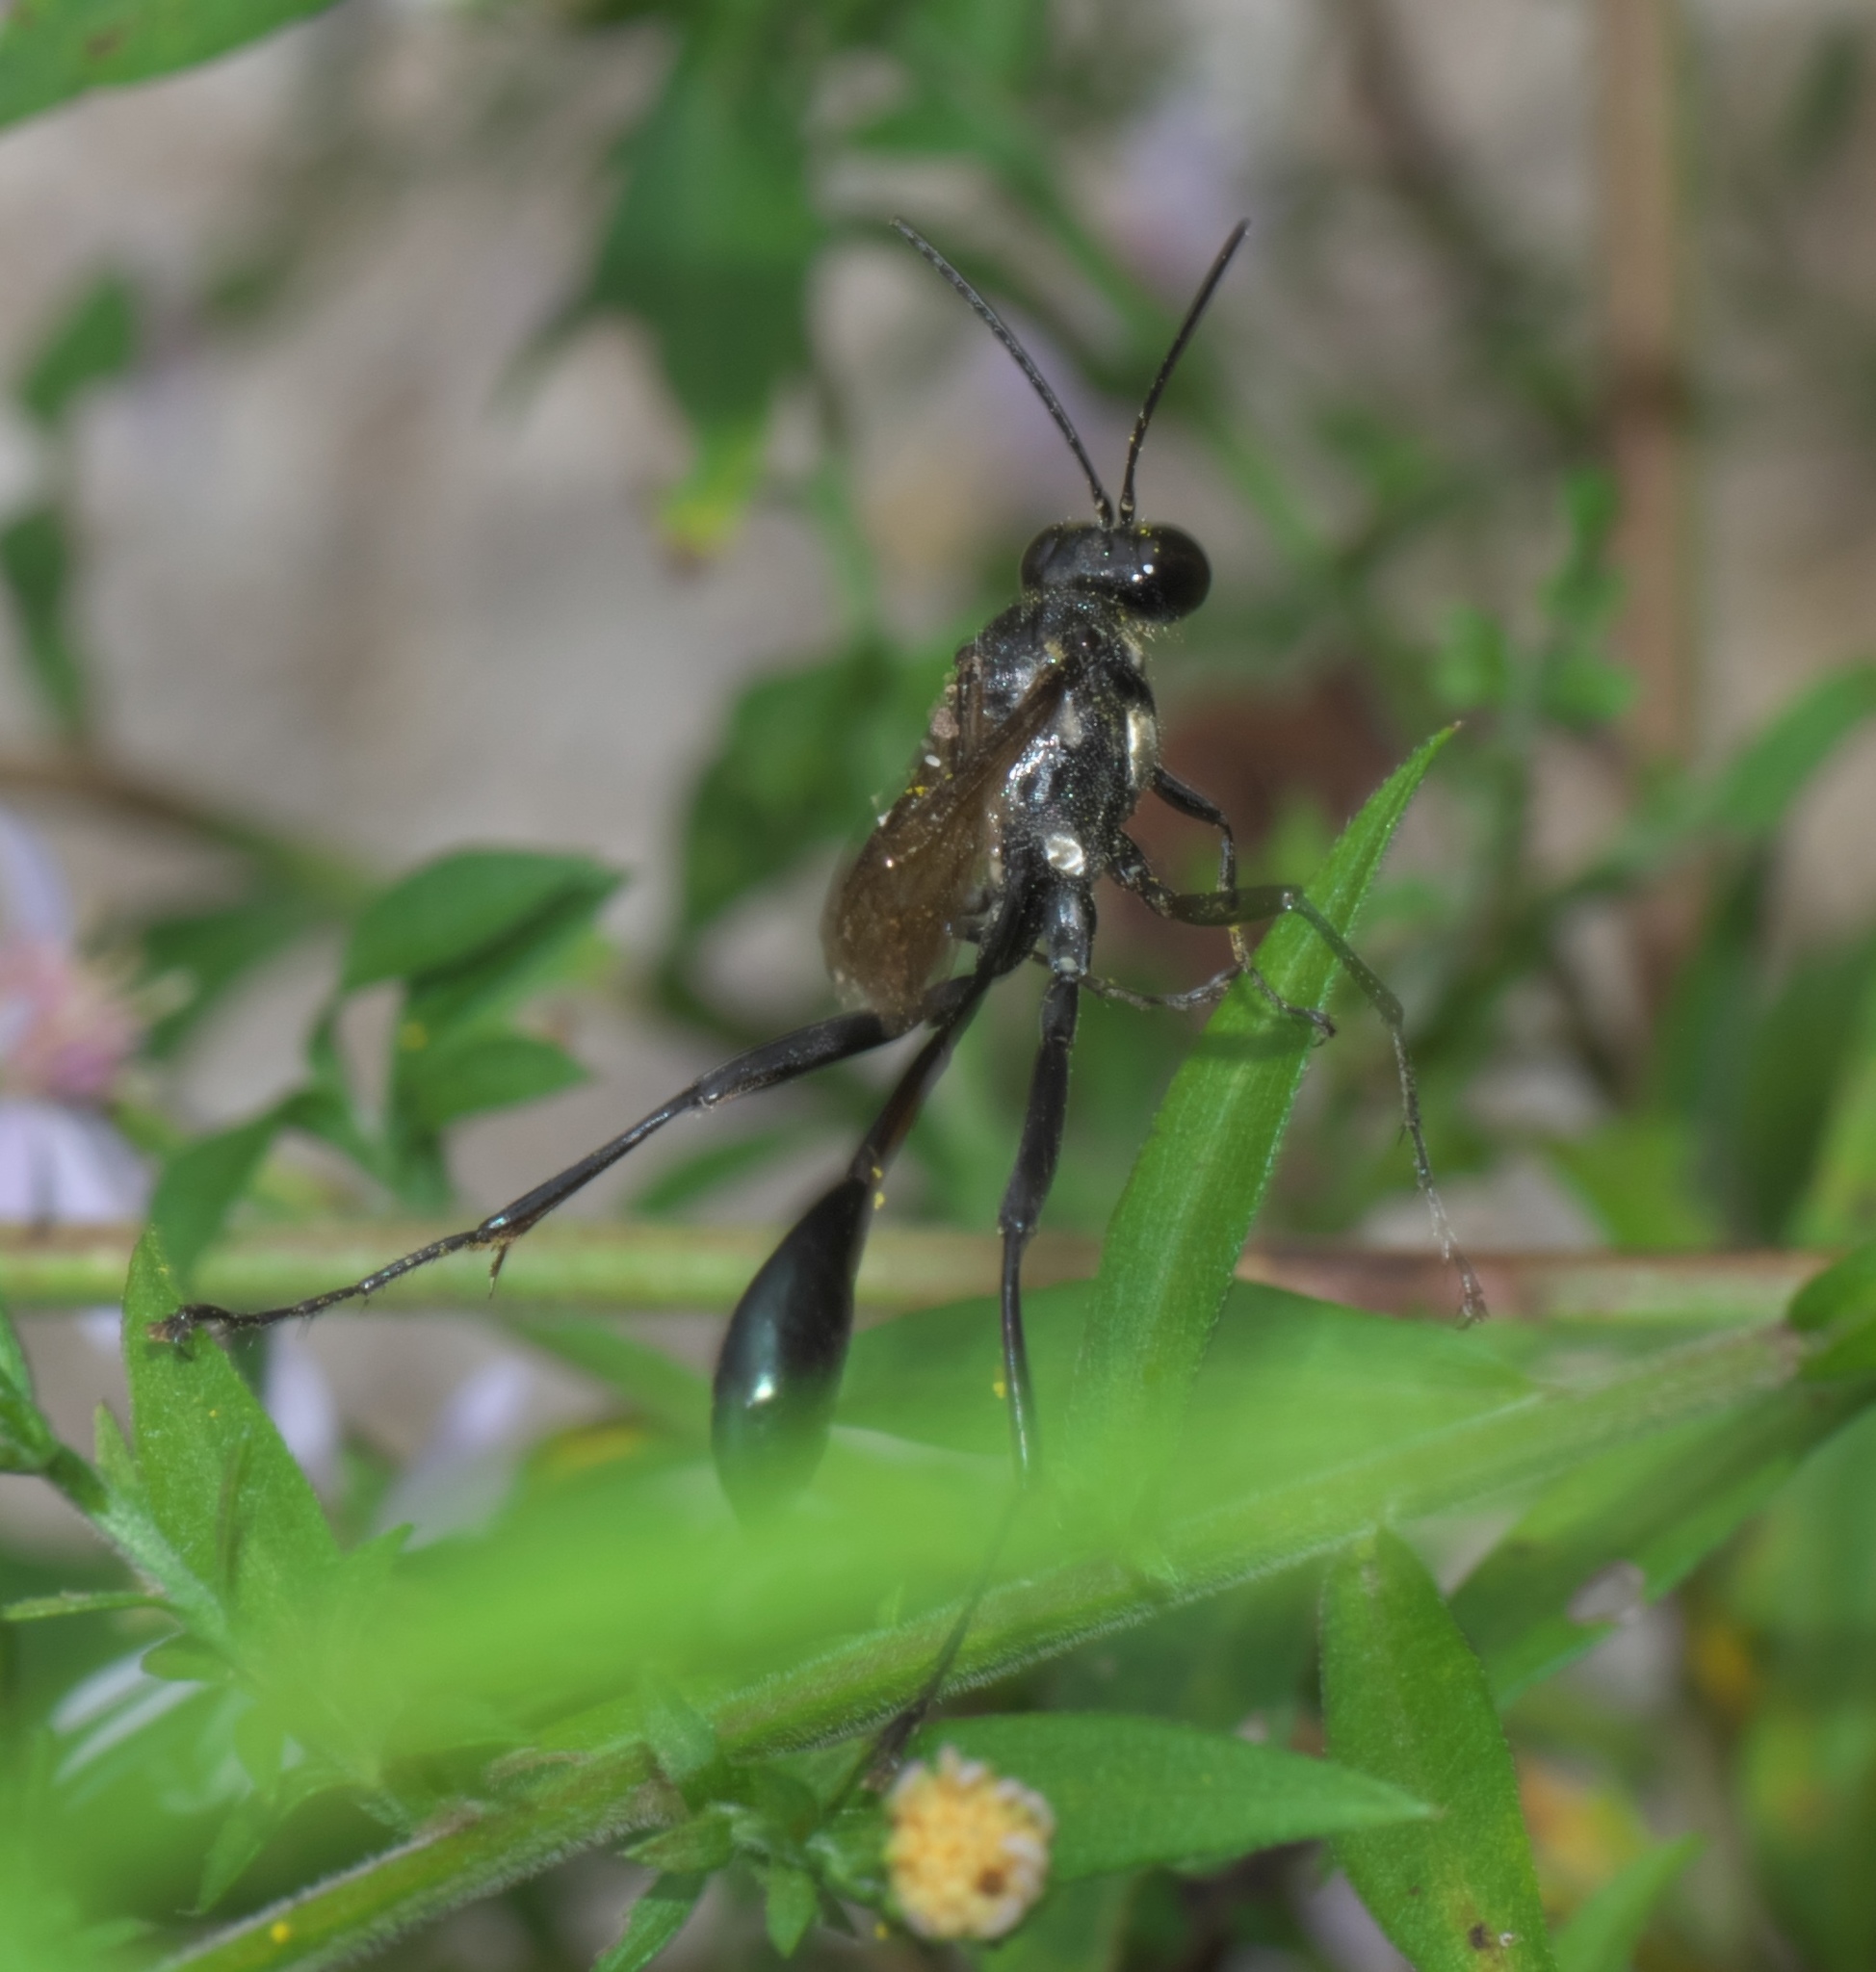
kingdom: Animalia
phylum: Arthropoda
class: Insecta
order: Hymenoptera
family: Sphecidae
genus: Eremnophila
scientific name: Eremnophila aureonotata
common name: Gold-marked thread-waisted wasp
